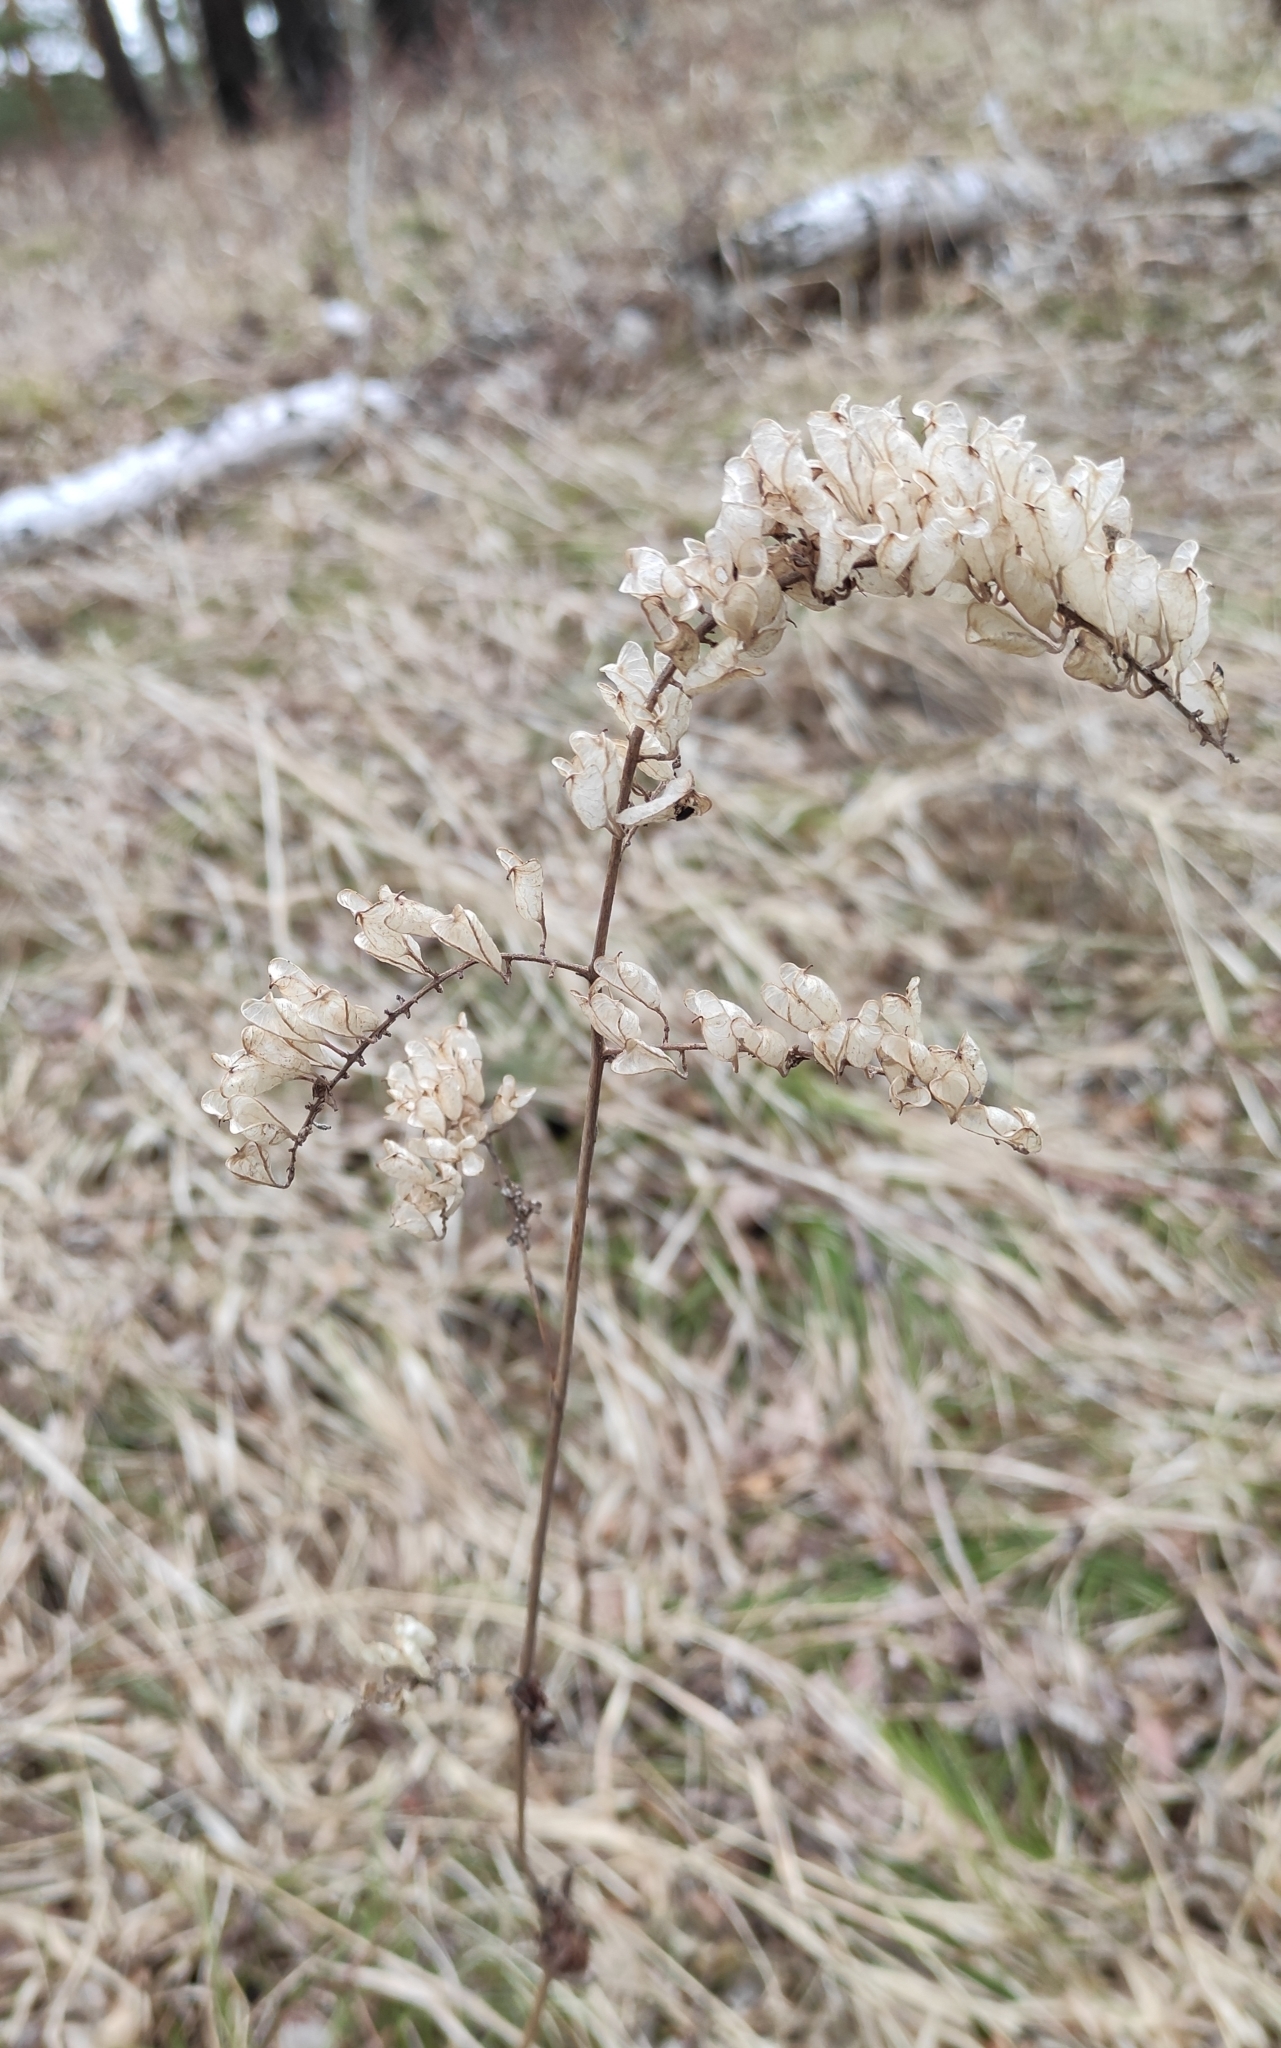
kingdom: Plantae
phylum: Tracheophyta
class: Magnoliopsida
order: Ranunculales
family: Ranunculaceae
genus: Actaea
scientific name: Actaea cimicifuga
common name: Chinese cimicifuga
